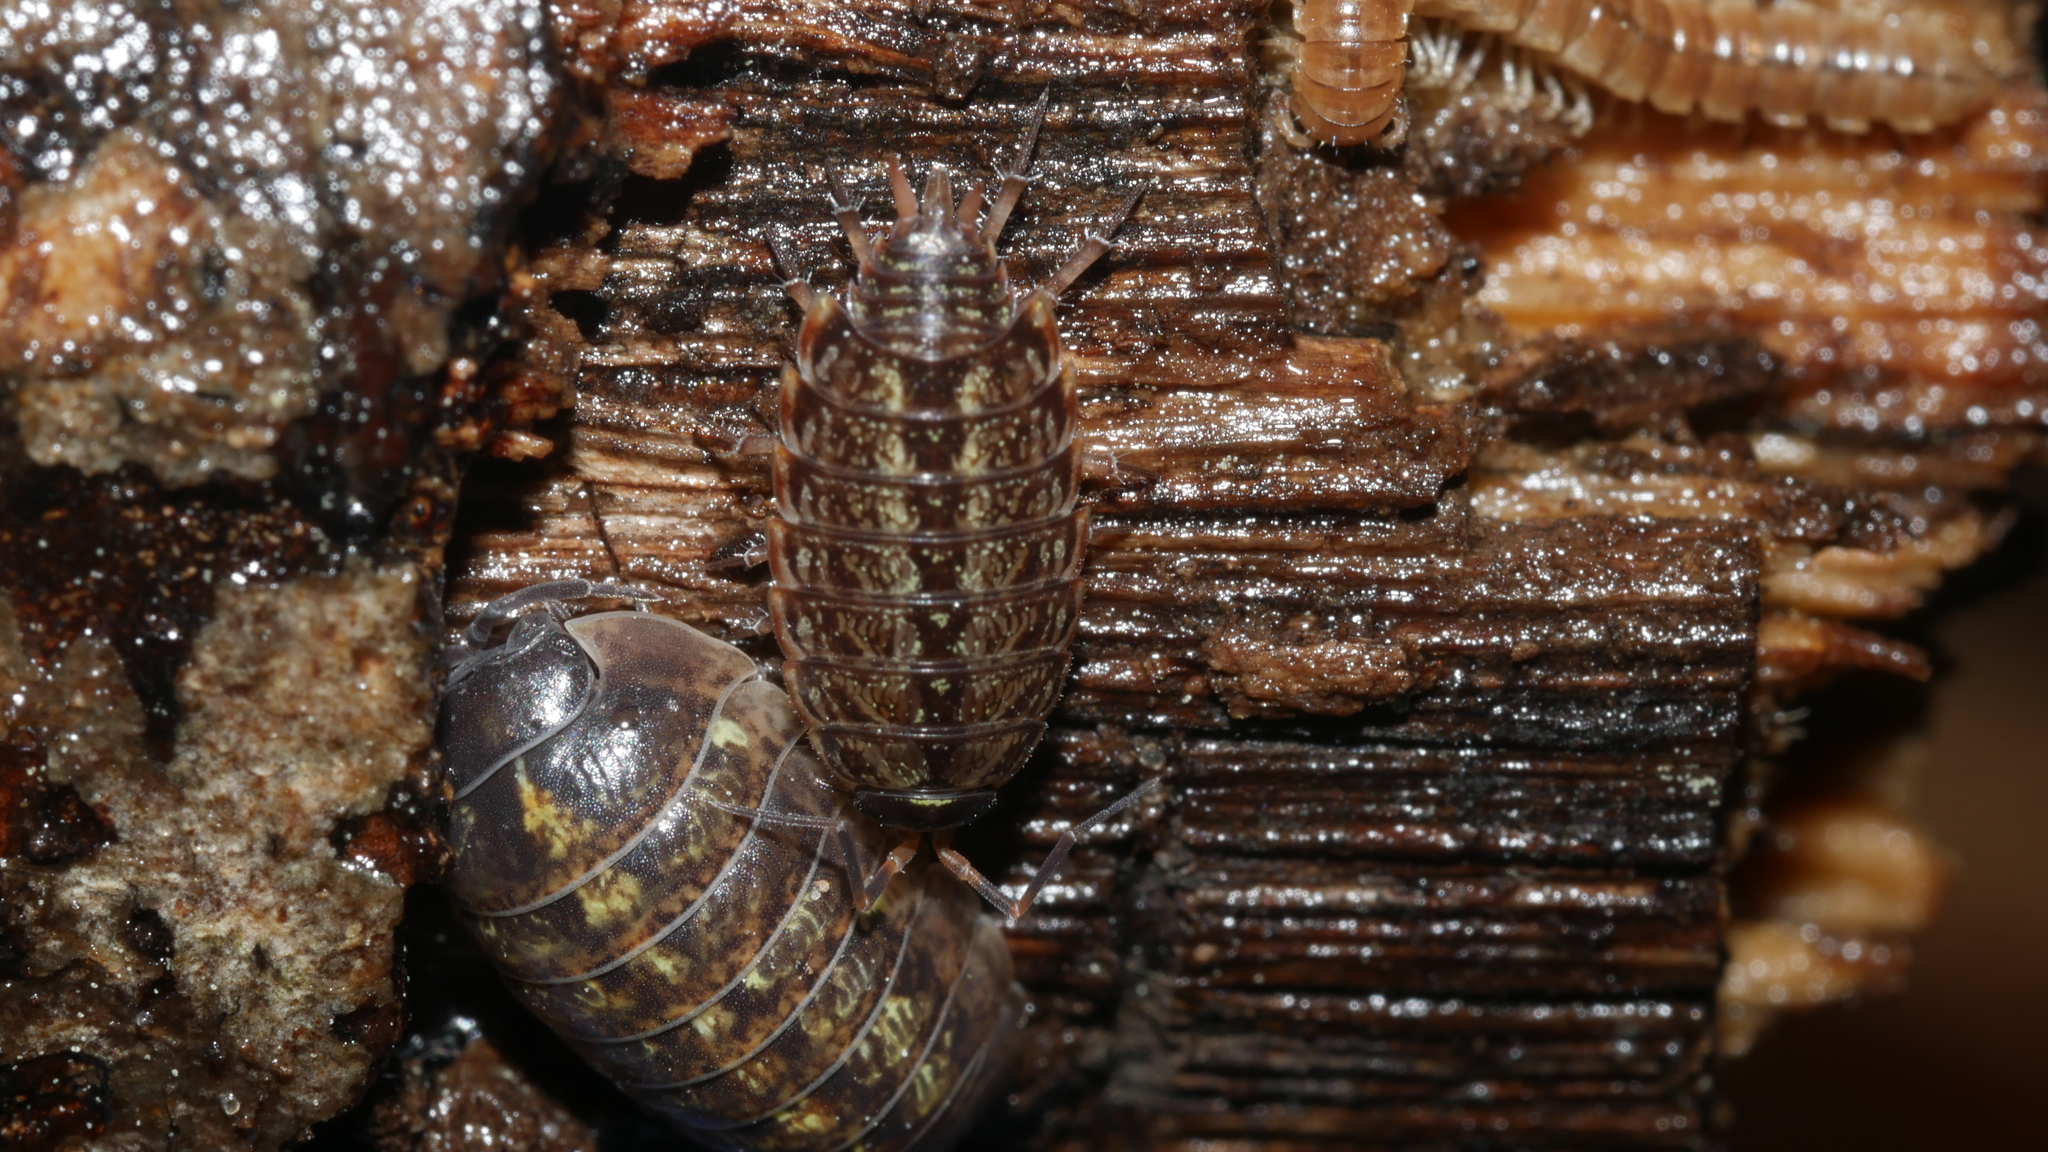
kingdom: Animalia
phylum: Arthropoda
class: Malacostraca
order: Isopoda
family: Philosciidae
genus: Philoscia
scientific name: Philoscia muscorum
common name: Common striped woodlouse
